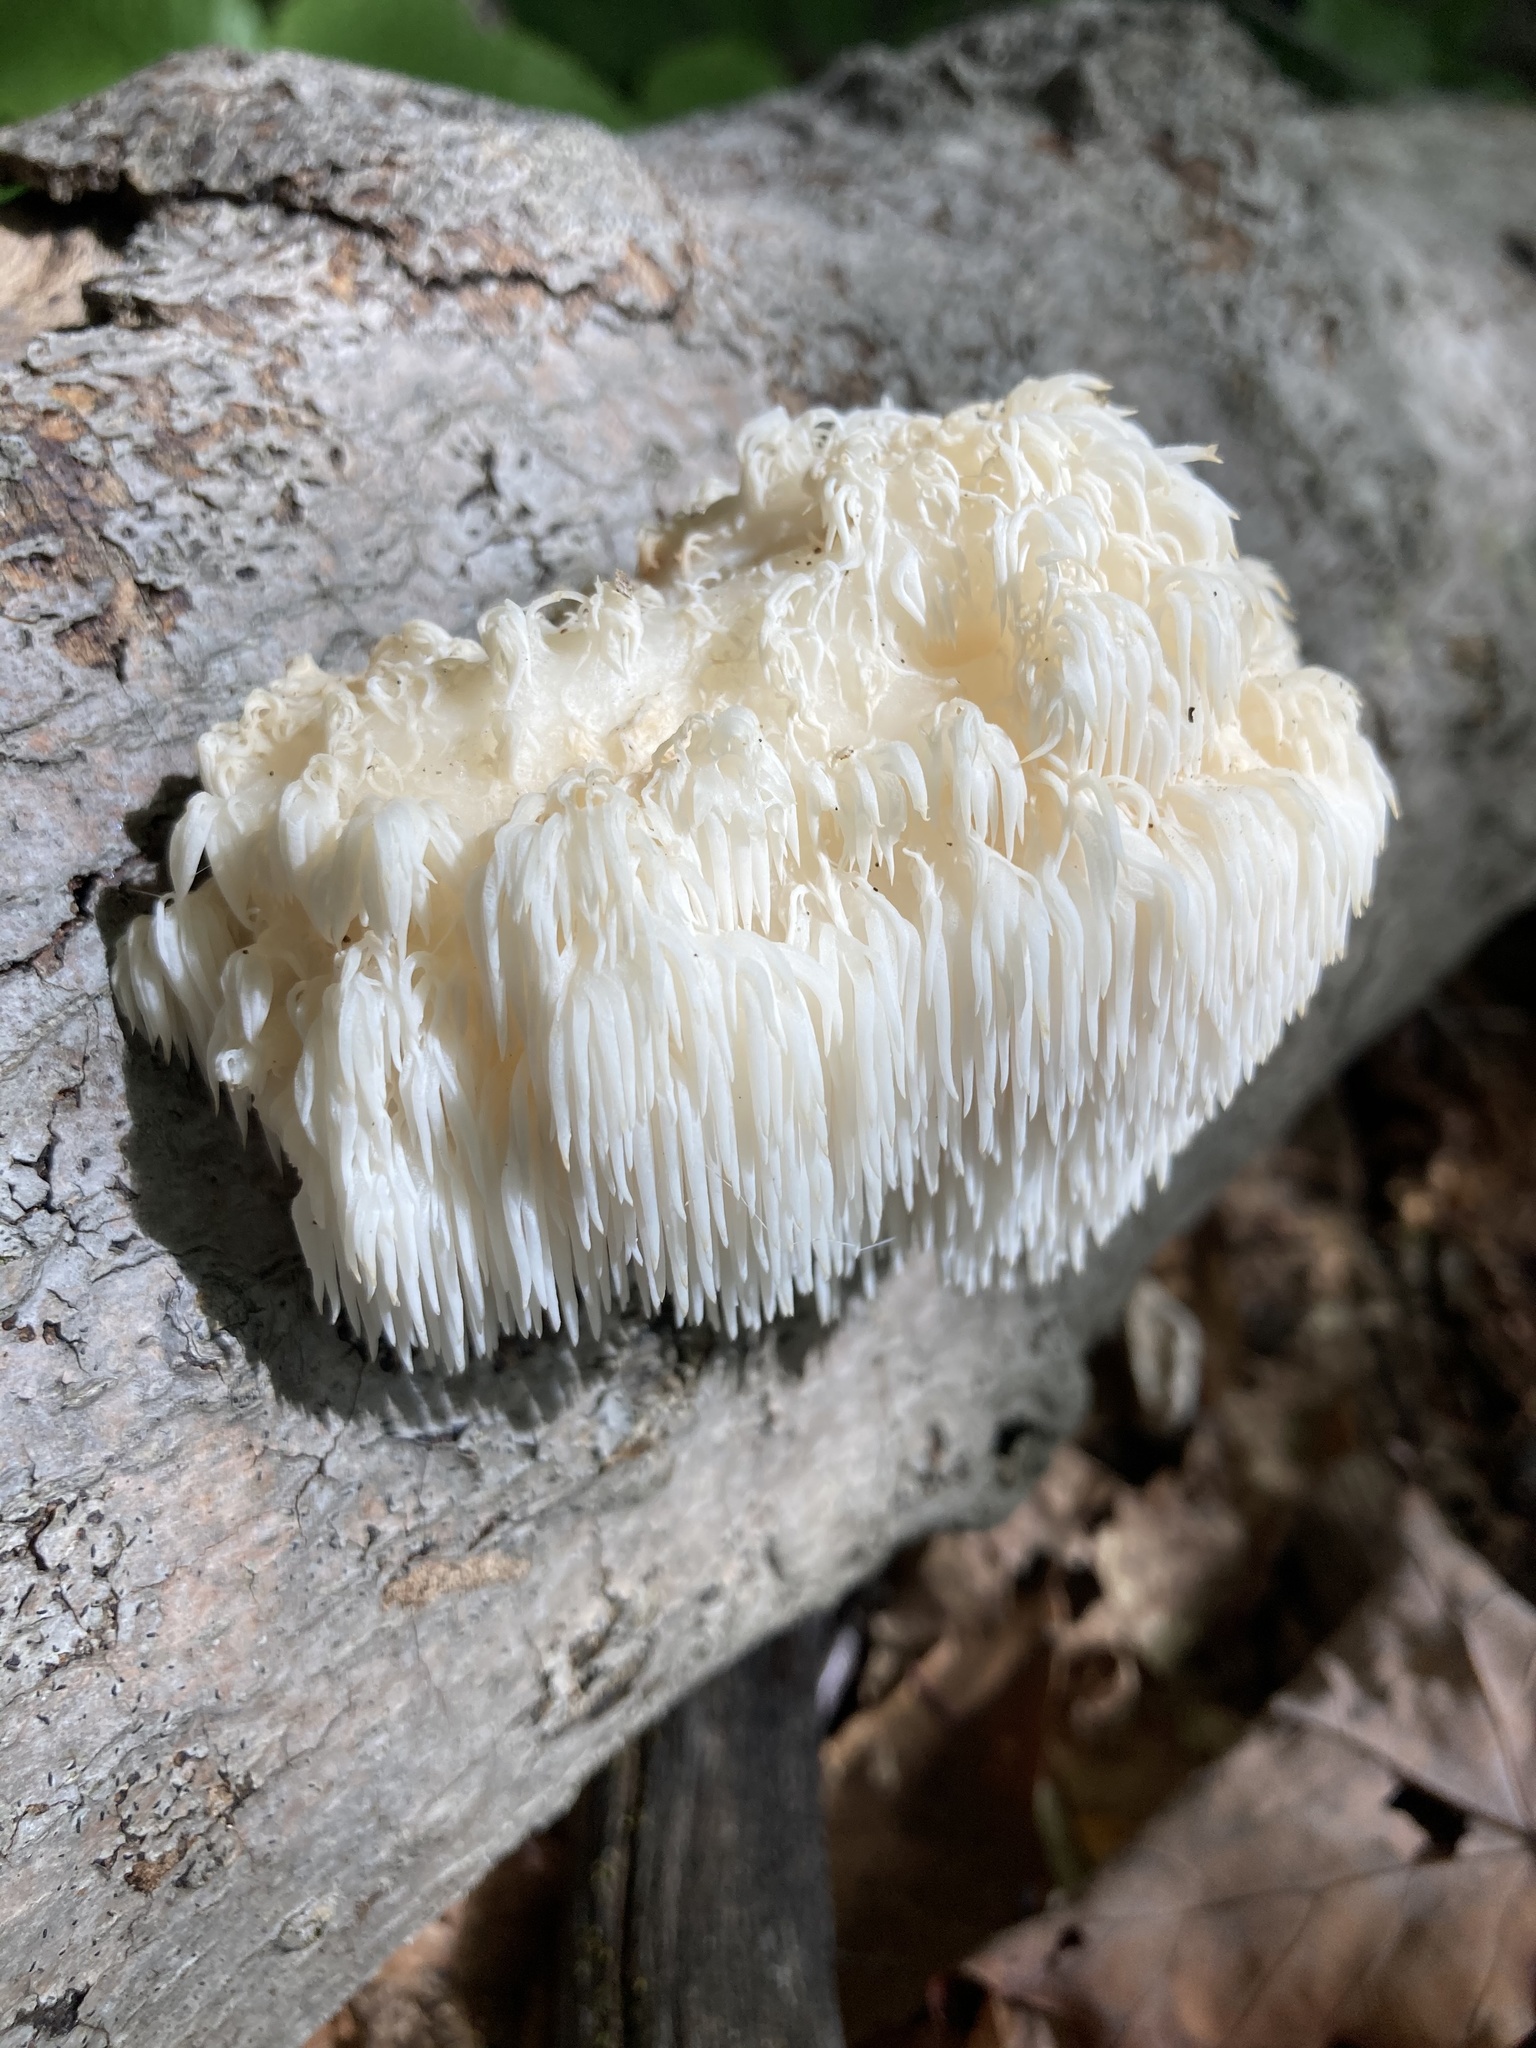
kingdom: Fungi
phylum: Basidiomycota
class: Agaricomycetes
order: Russulales
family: Hericiaceae
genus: Hericium
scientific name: Hericium americanum
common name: Bear's head tooth
